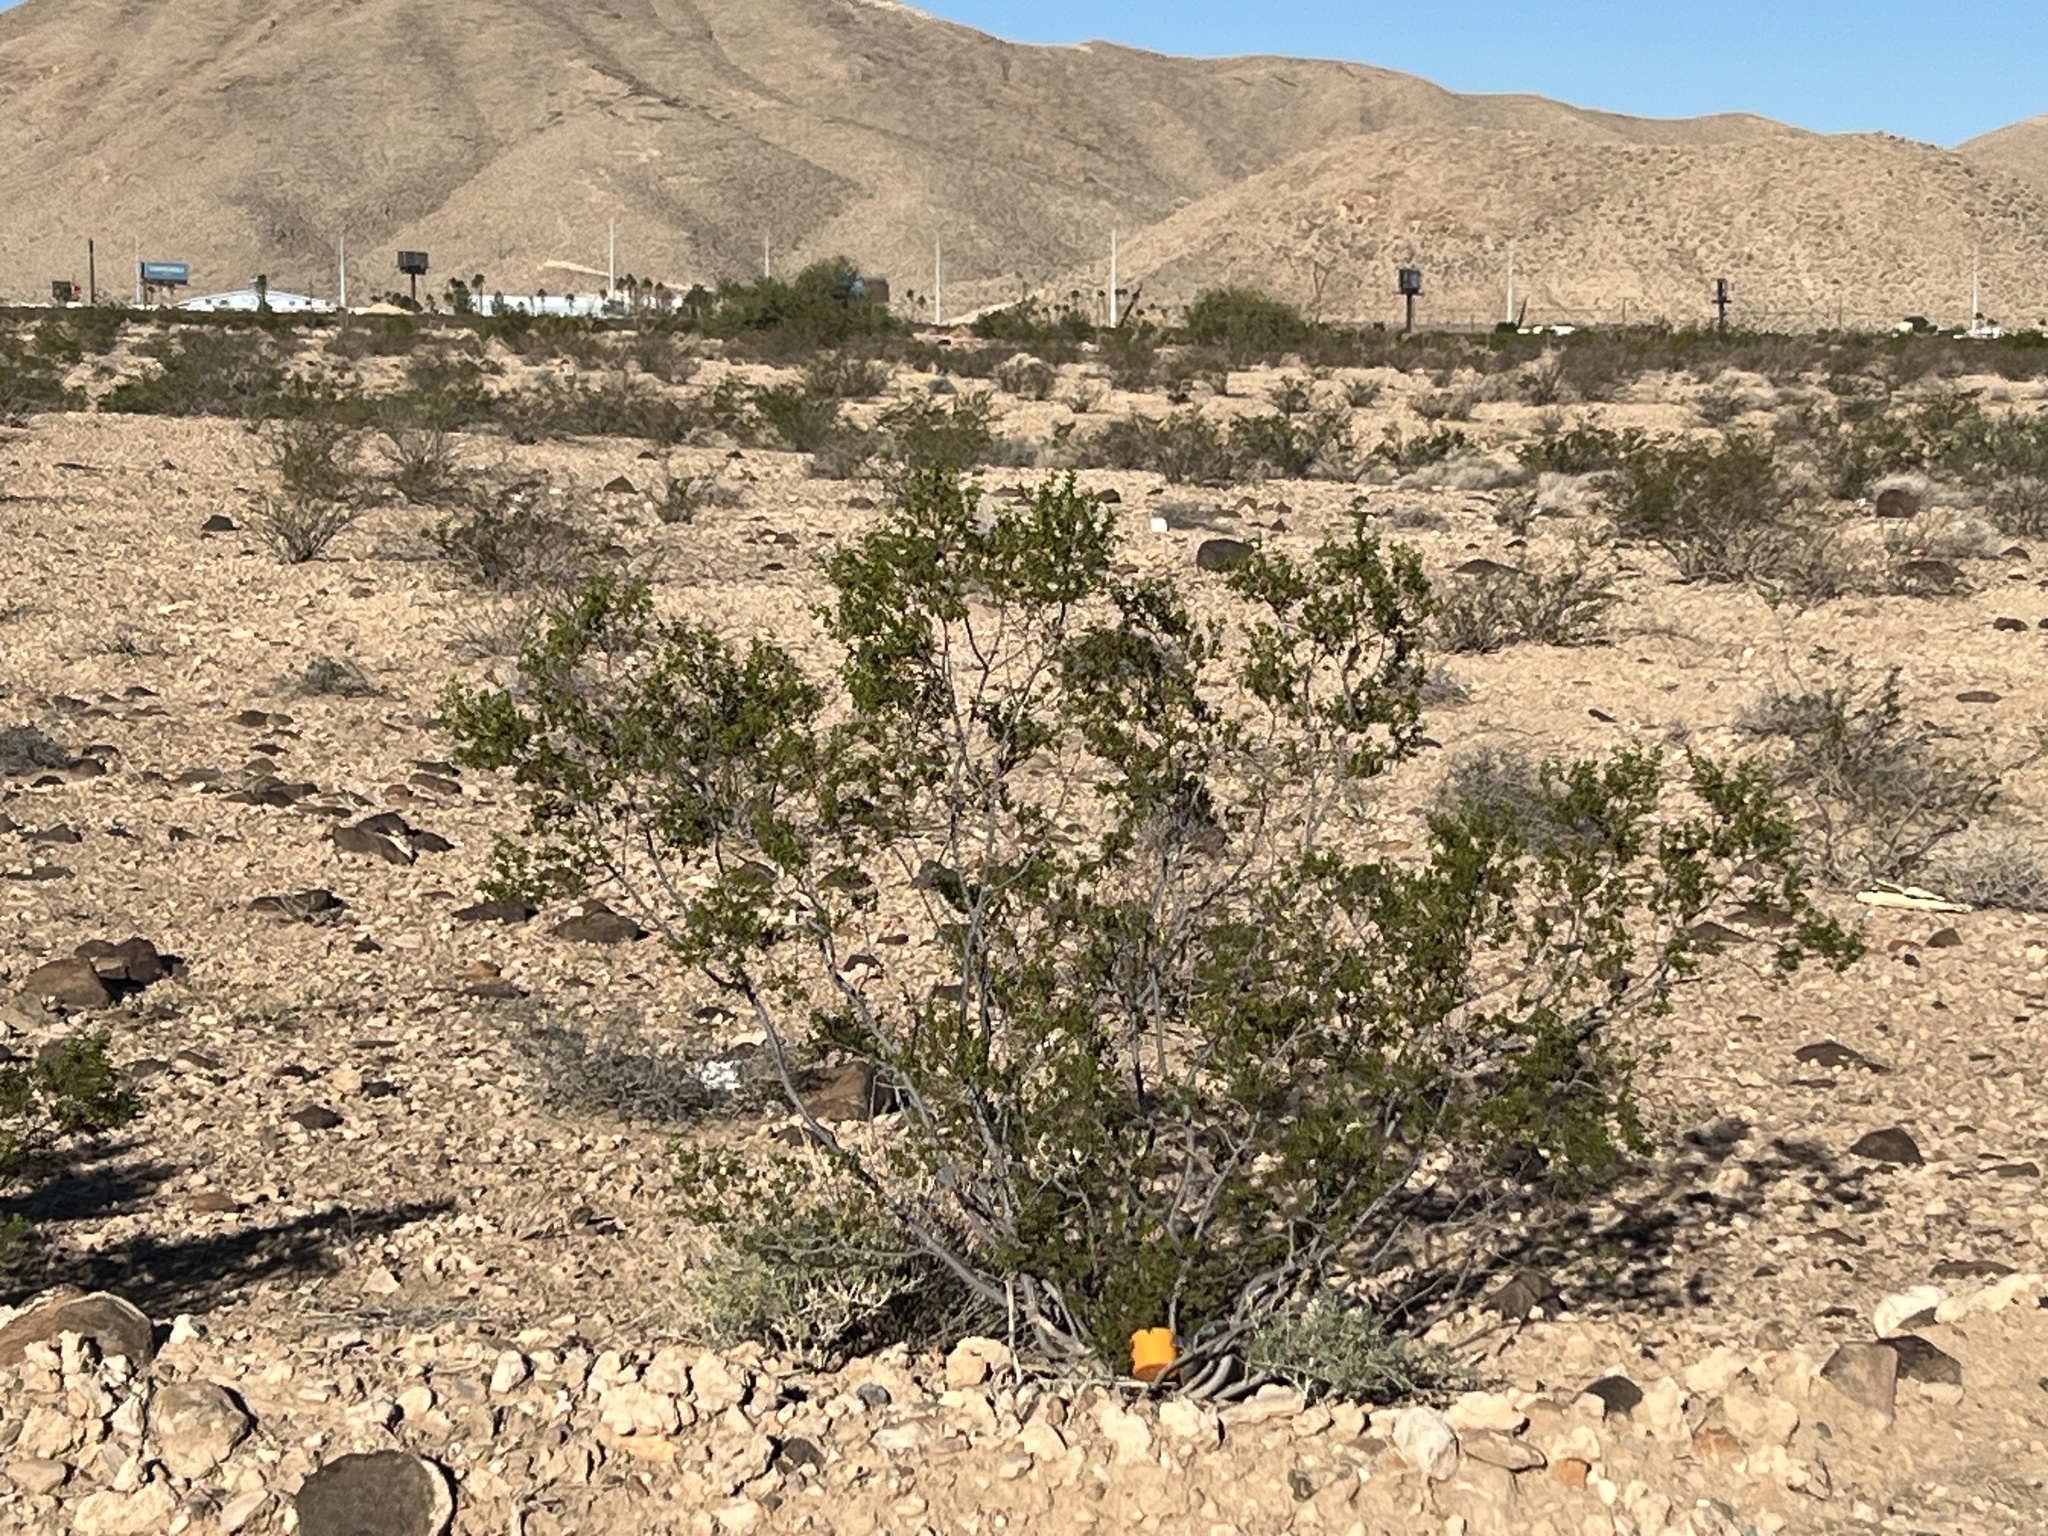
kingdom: Plantae
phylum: Tracheophyta
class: Magnoliopsida
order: Zygophyllales
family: Zygophyllaceae
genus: Larrea
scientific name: Larrea tridentata
